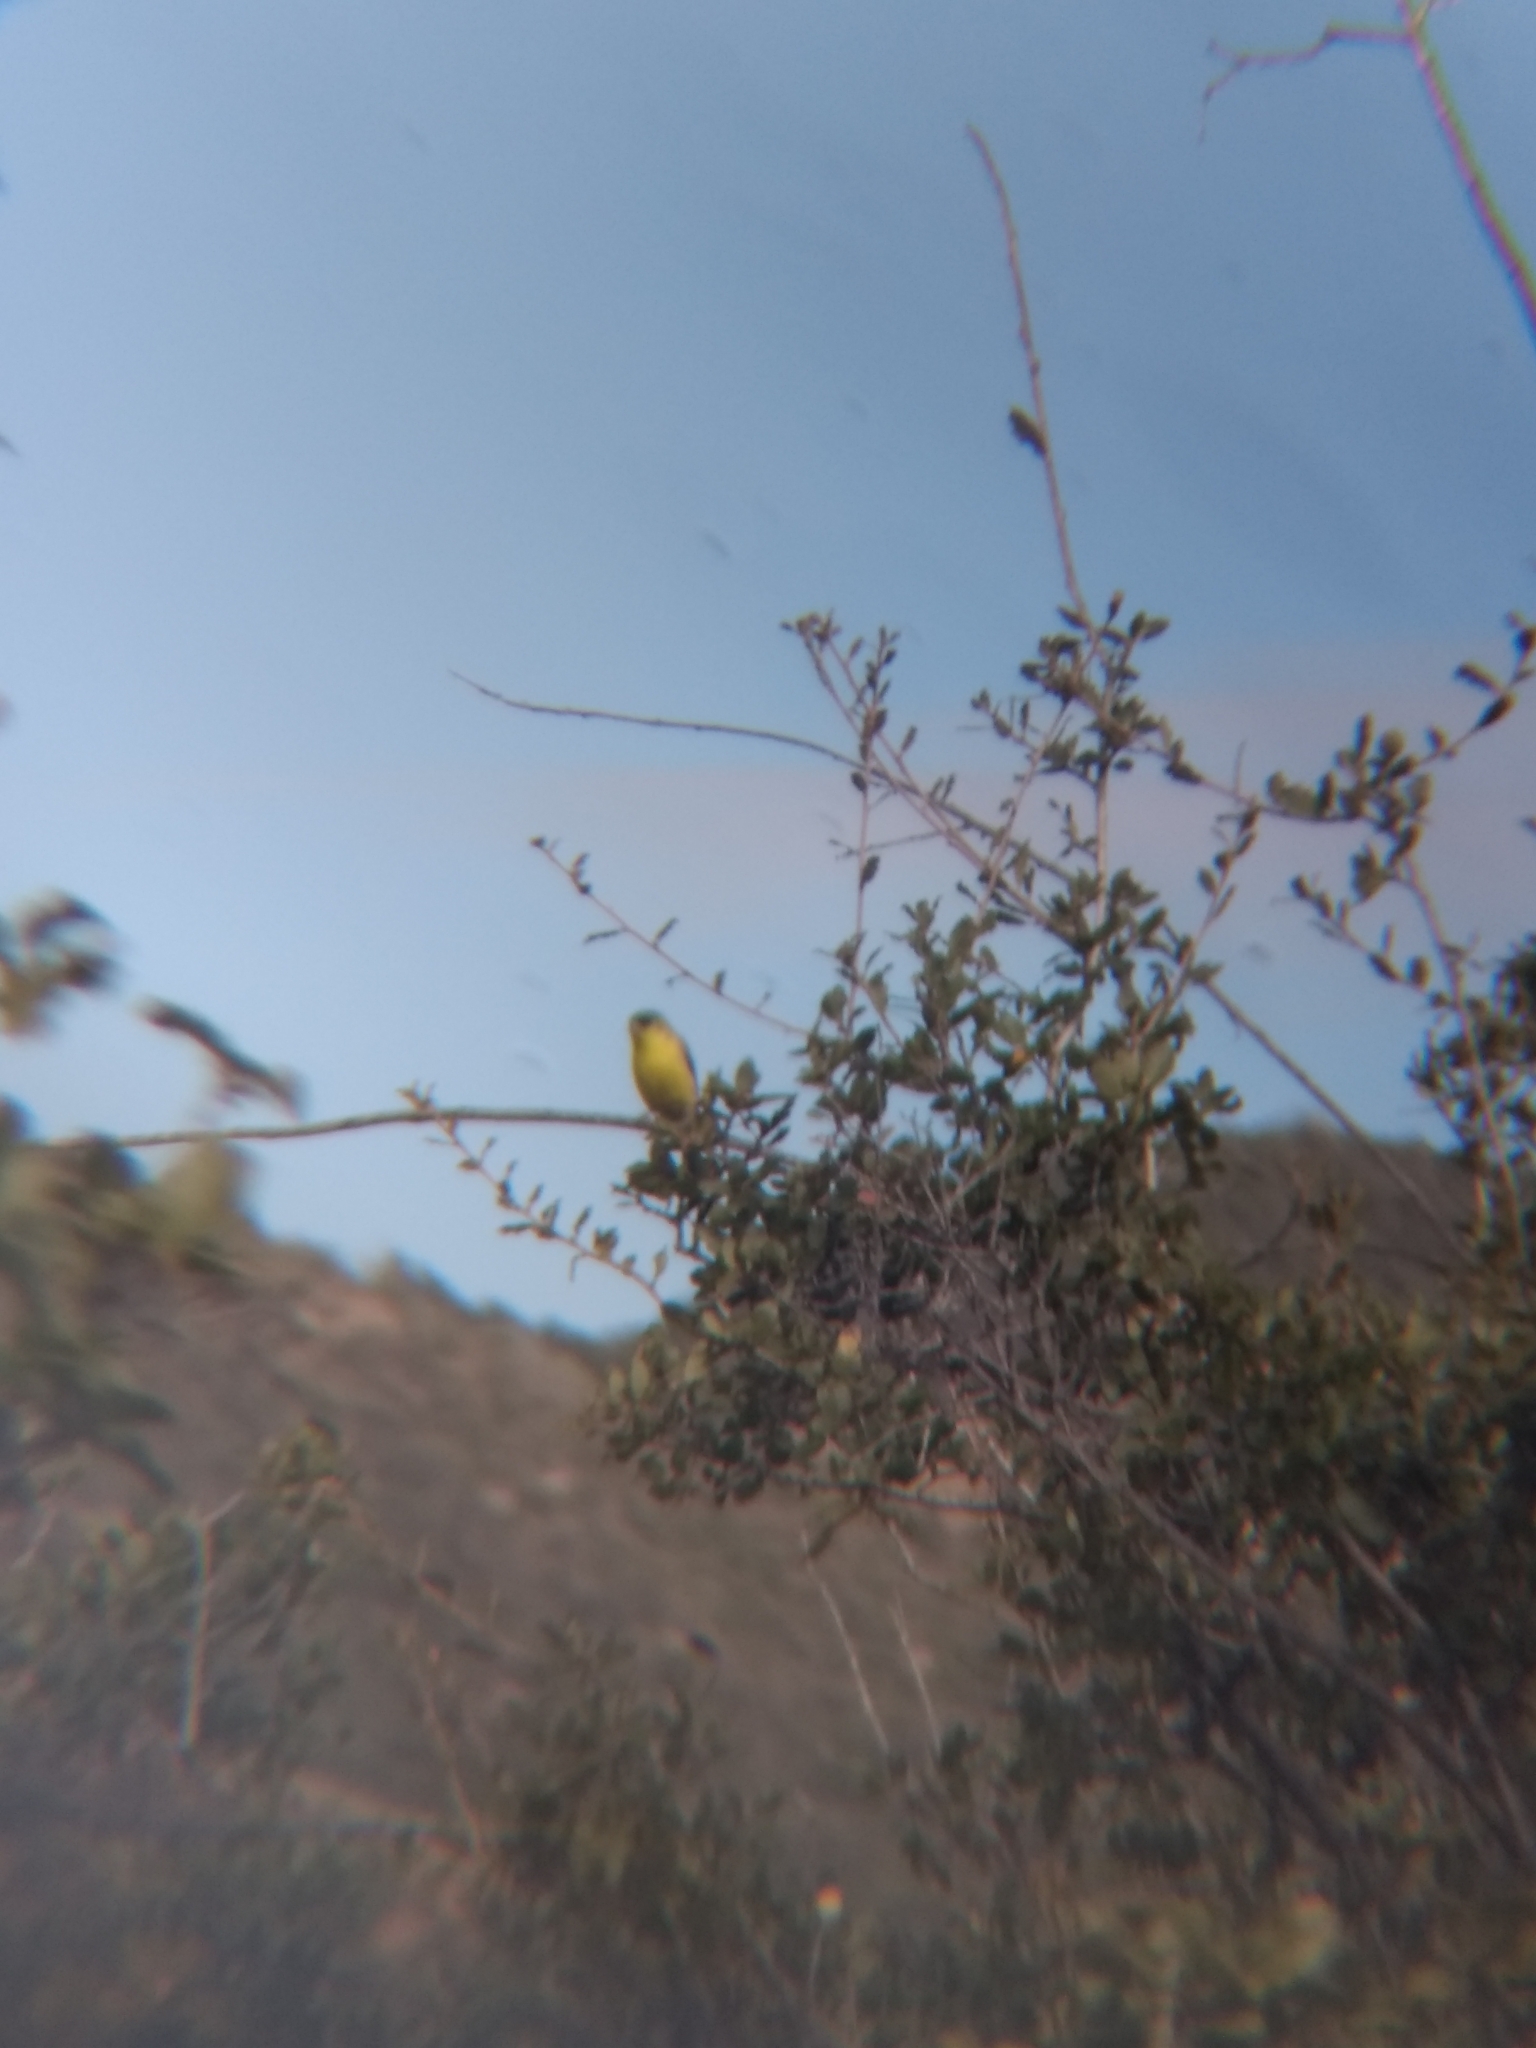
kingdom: Animalia
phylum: Chordata
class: Aves
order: Passeriformes
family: Fringillidae
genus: Spinus
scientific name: Spinus psaltria
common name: Lesser goldfinch
